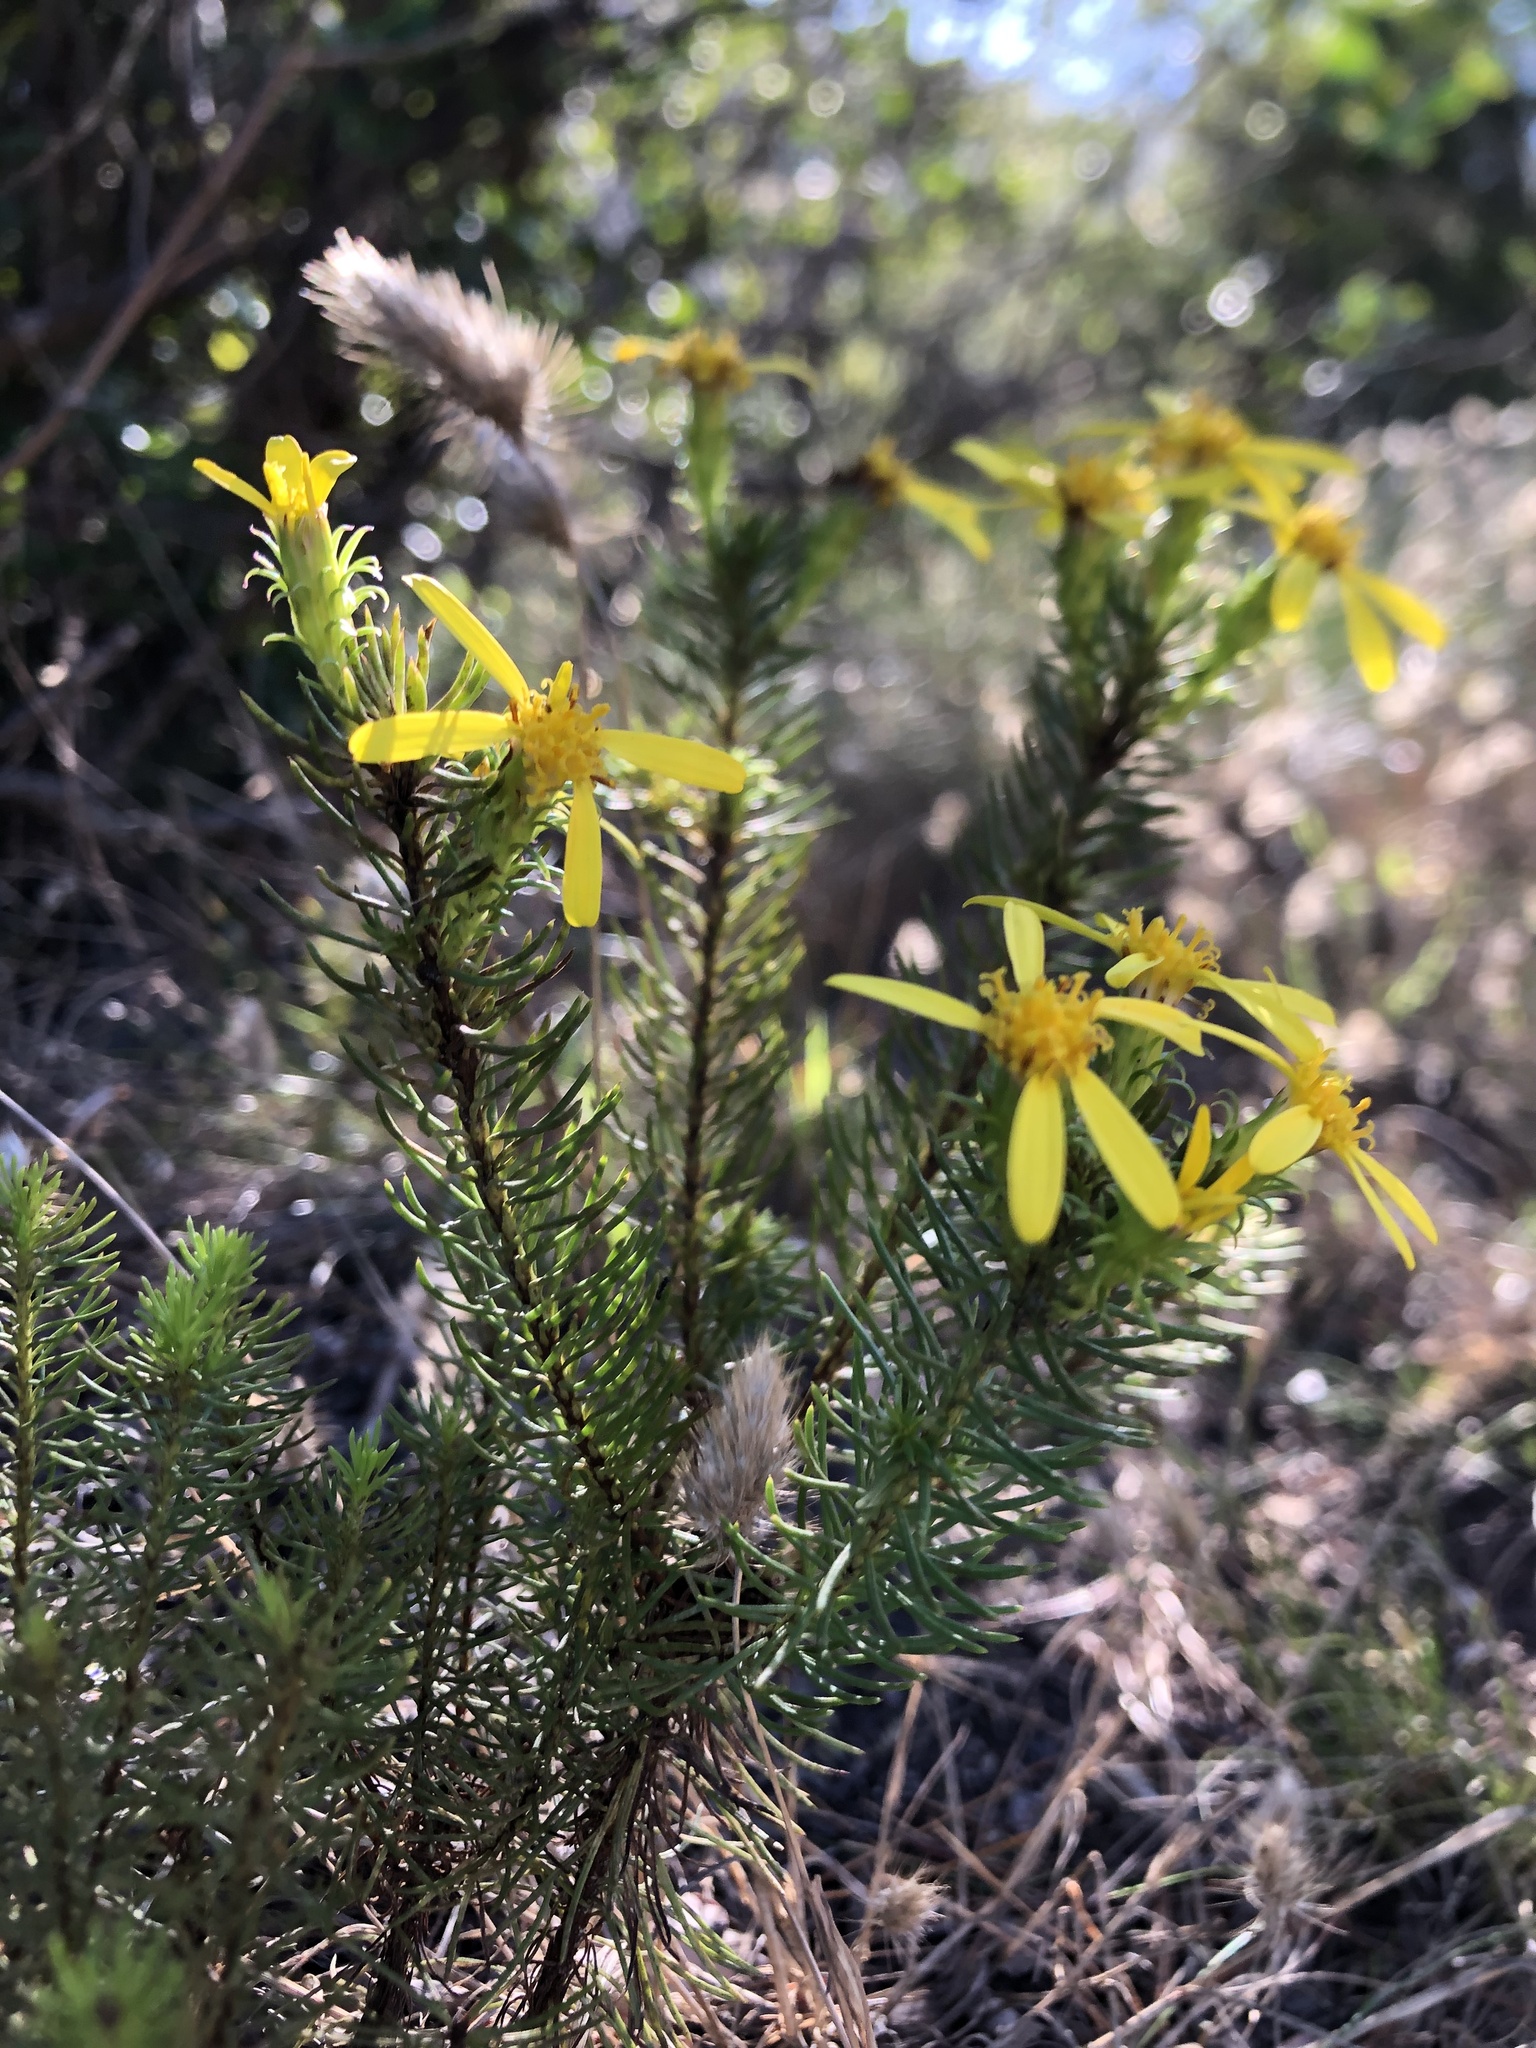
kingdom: Plantae
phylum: Tracheophyta
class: Magnoliopsida
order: Asterales
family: Asteraceae
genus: Senecio
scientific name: Senecio pinifolius
